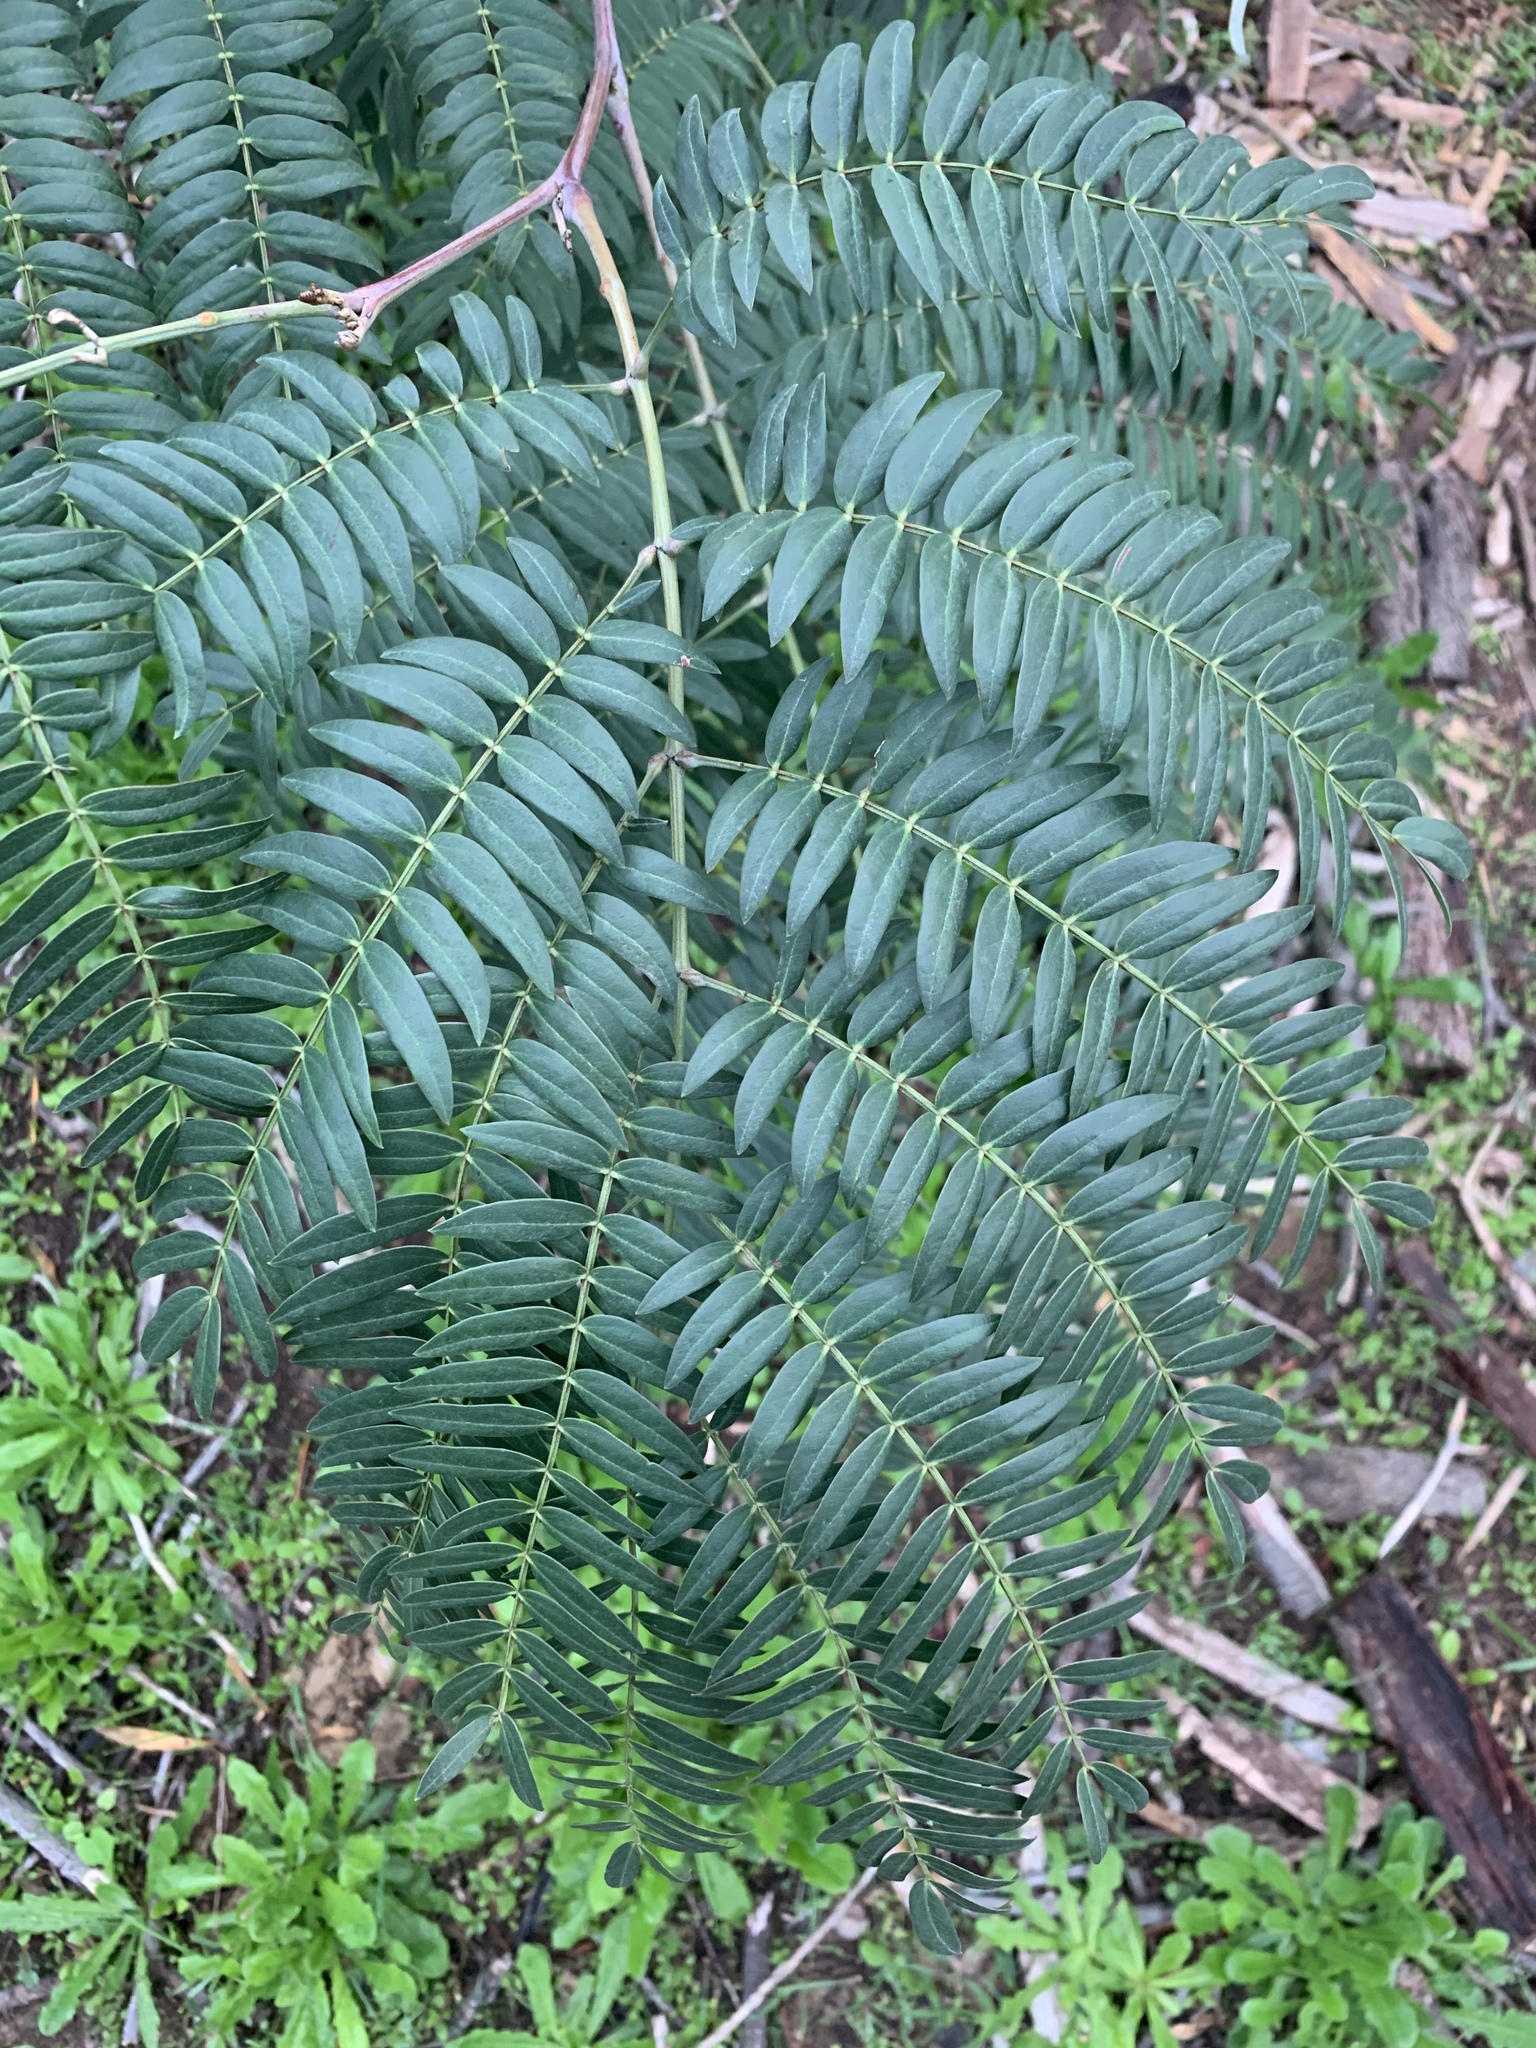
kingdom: Plantae
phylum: Tracheophyta
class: Magnoliopsida
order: Fabales
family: Fabaceae
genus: Acacia
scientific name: Acacia elata
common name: Cedar wattle
